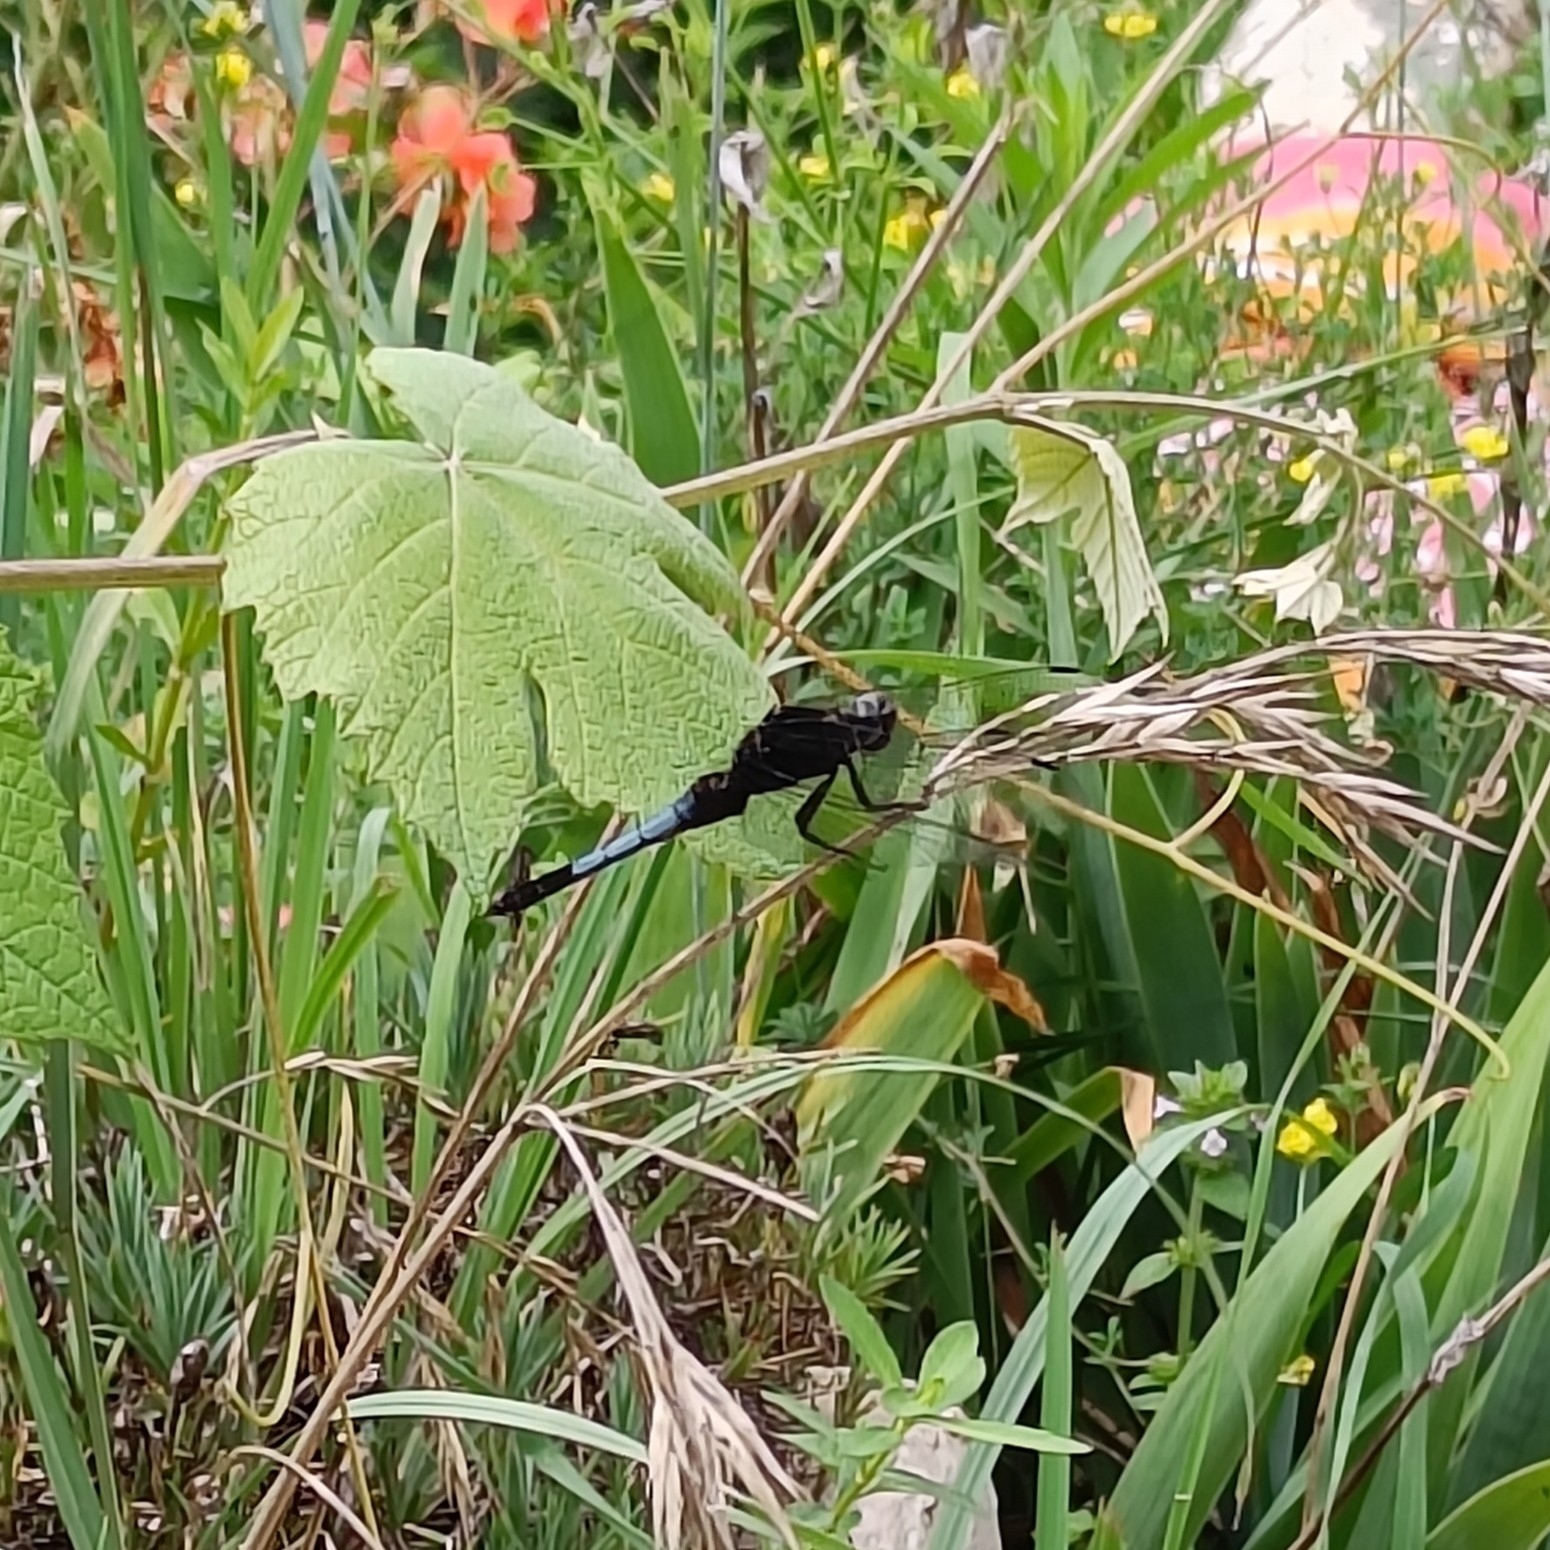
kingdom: Animalia
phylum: Arthropoda
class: Insecta
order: Odonata
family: Libellulidae
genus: Orthetrum
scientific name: Orthetrum triangulare
